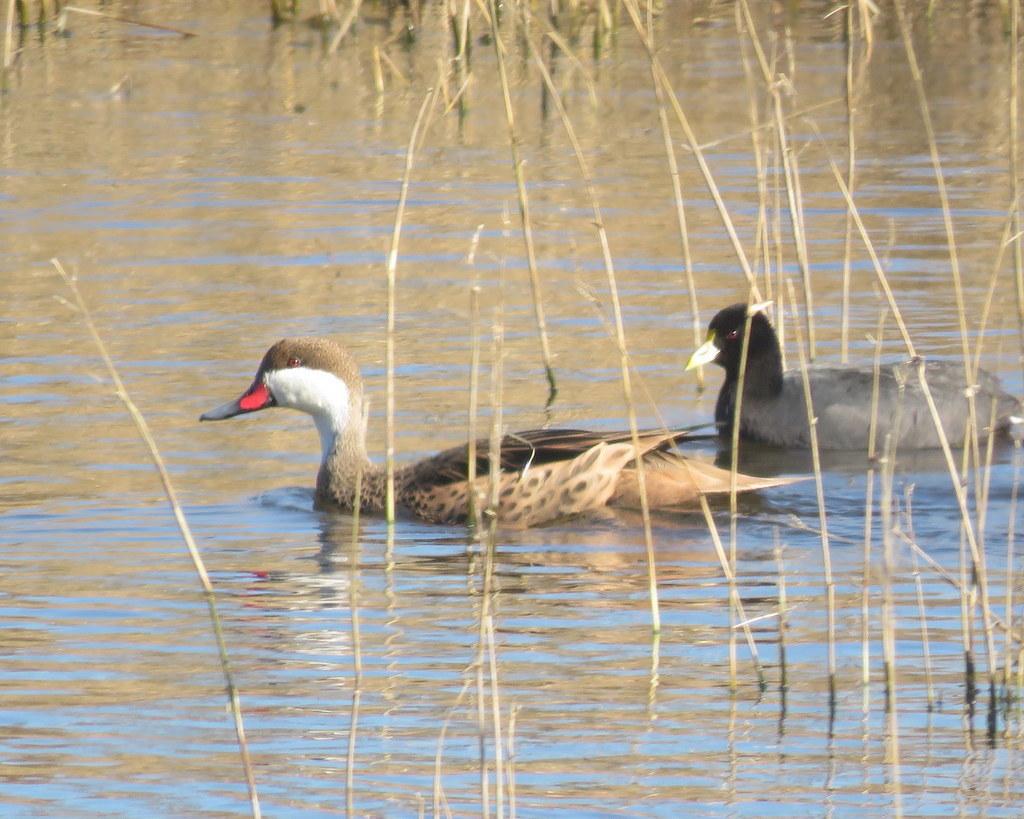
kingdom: Animalia
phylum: Chordata
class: Aves
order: Anseriformes
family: Anatidae
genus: Anas
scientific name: Anas bahamensis
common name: White-cheeked pintail
